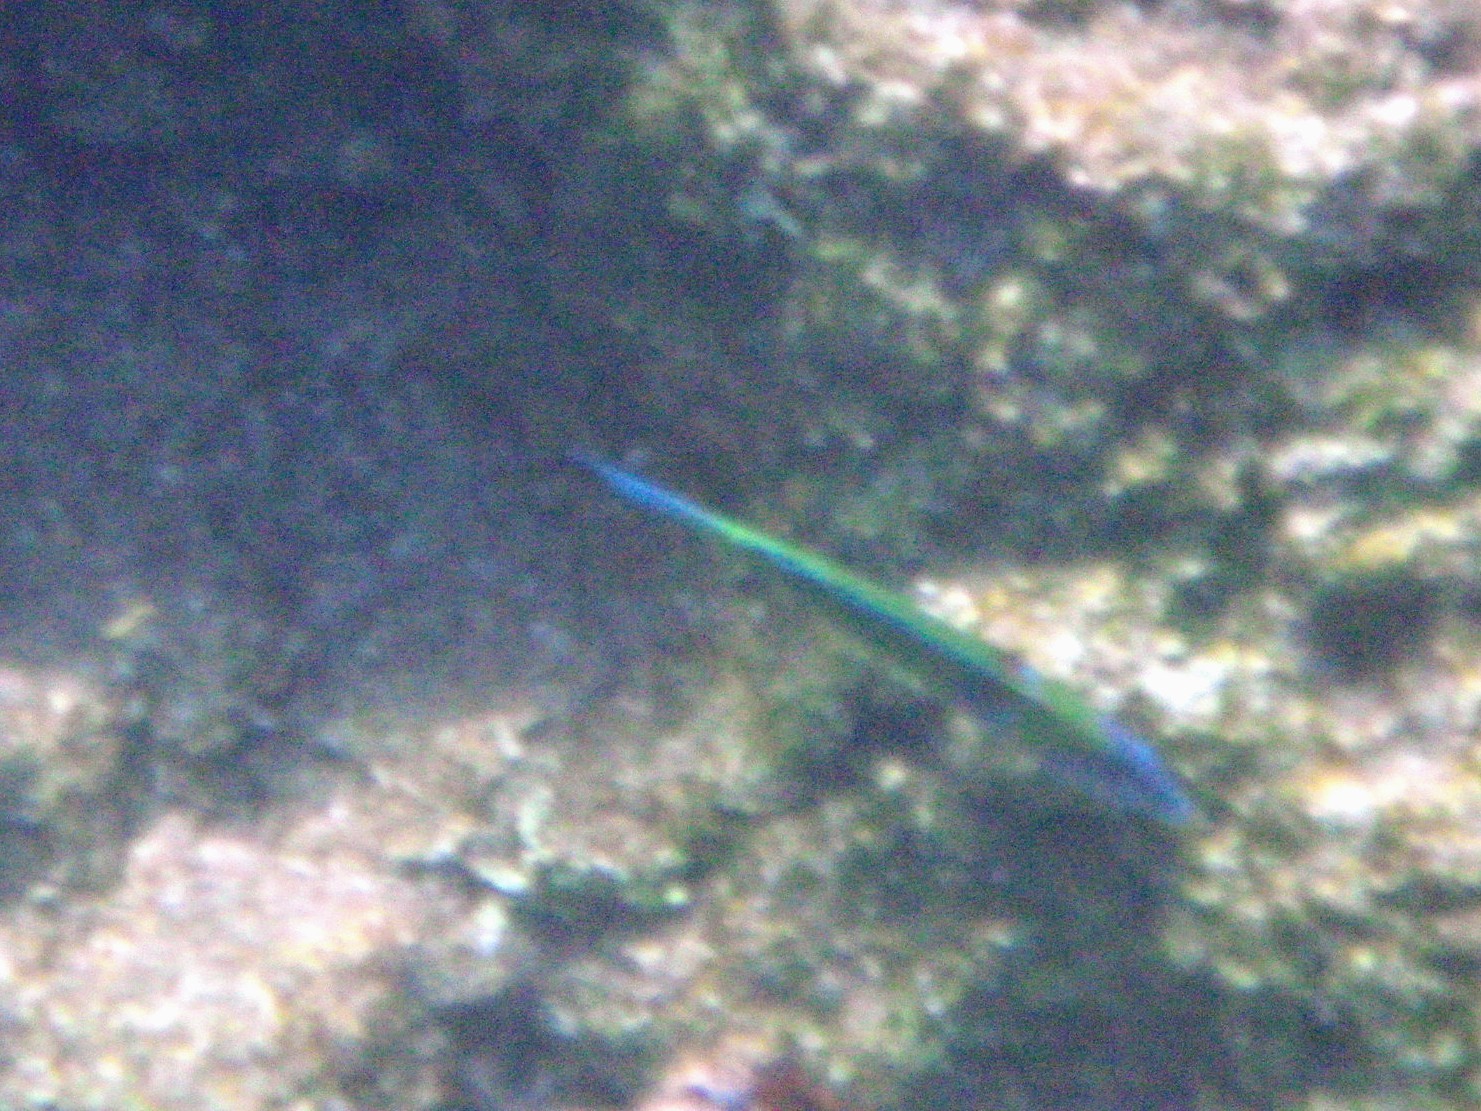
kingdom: Animalia
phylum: Chordata
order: Perciformes
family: Labridae
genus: Thalassoma
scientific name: Thalassoma pavo
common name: Ornate wrasse
